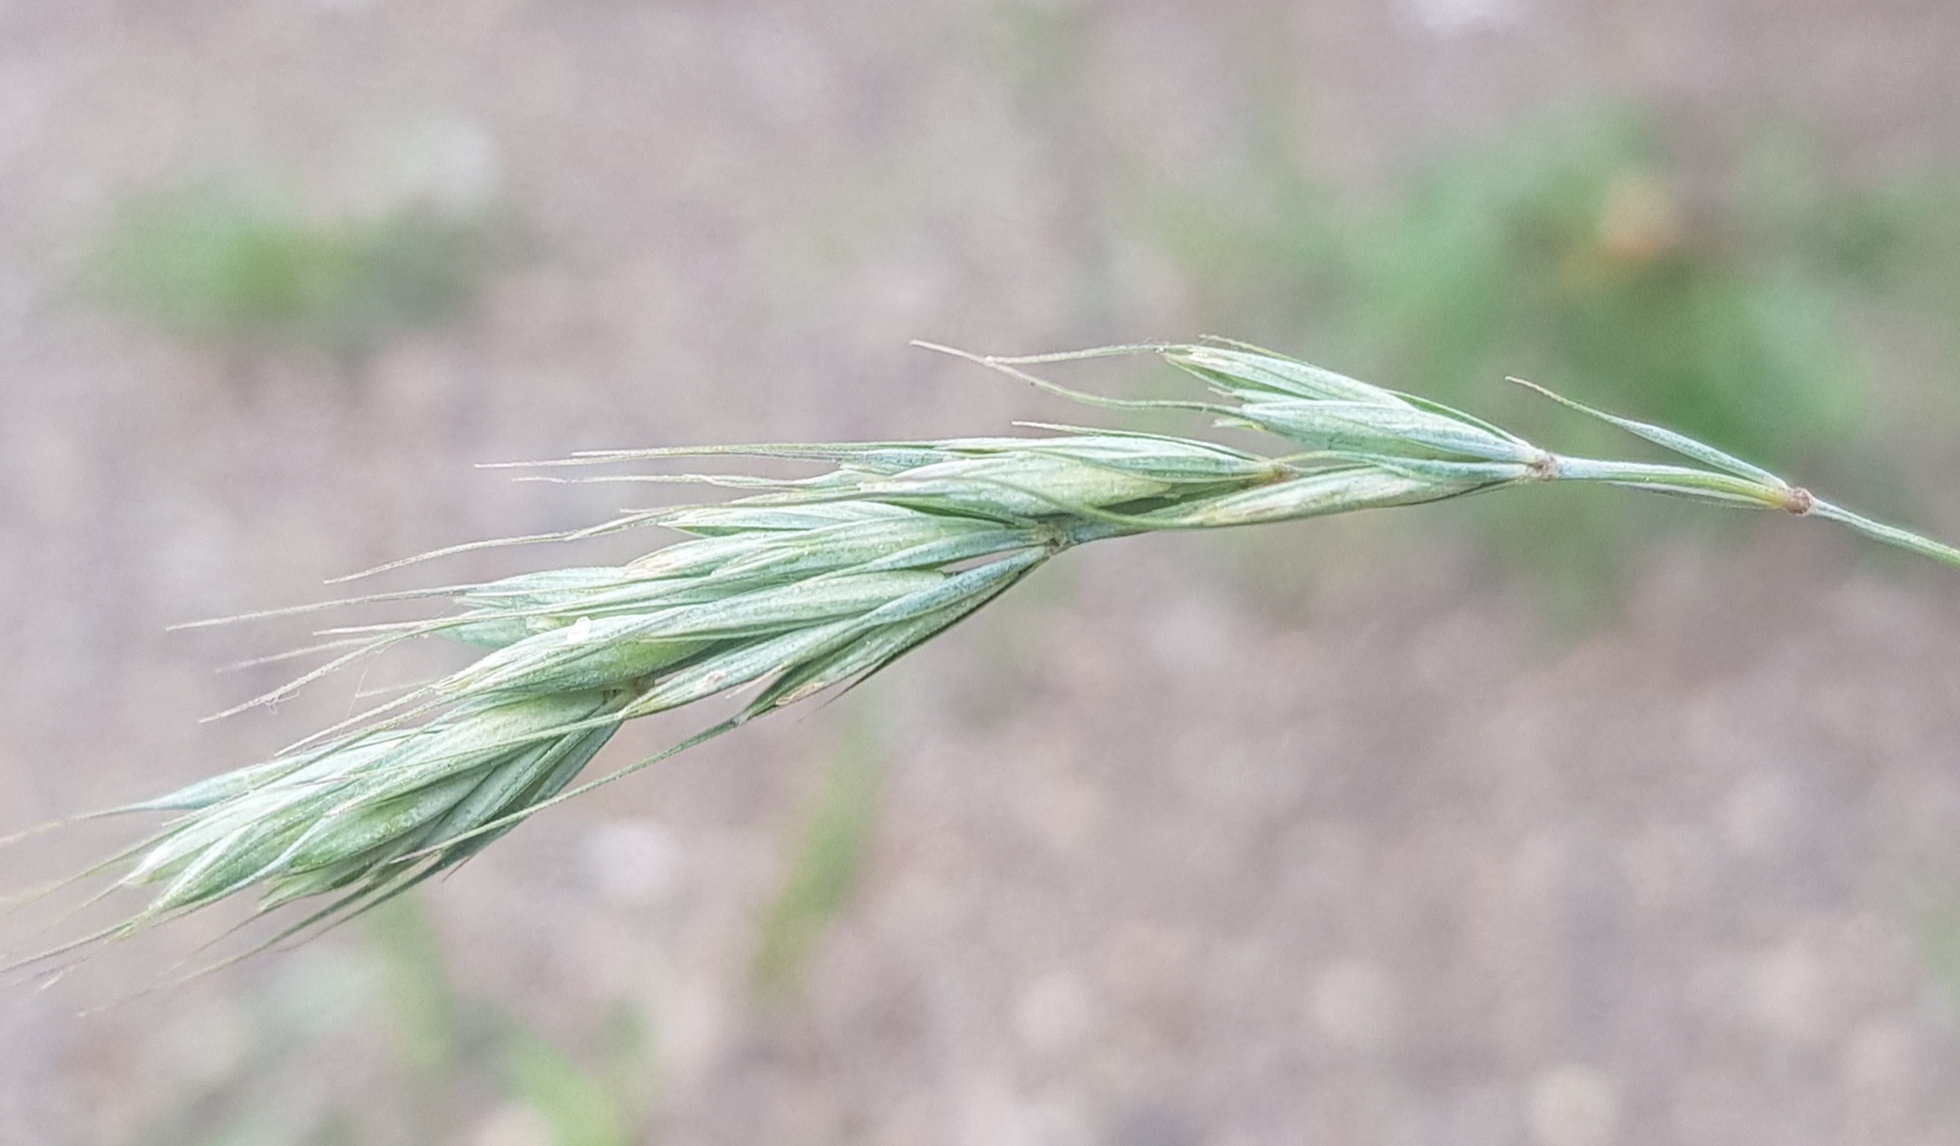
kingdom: Plantae
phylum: Tracheophyta
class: Liliopsida
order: Poales
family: Poaceae
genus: Elymus
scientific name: Elymus sibiricus
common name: Siberian wildrye
